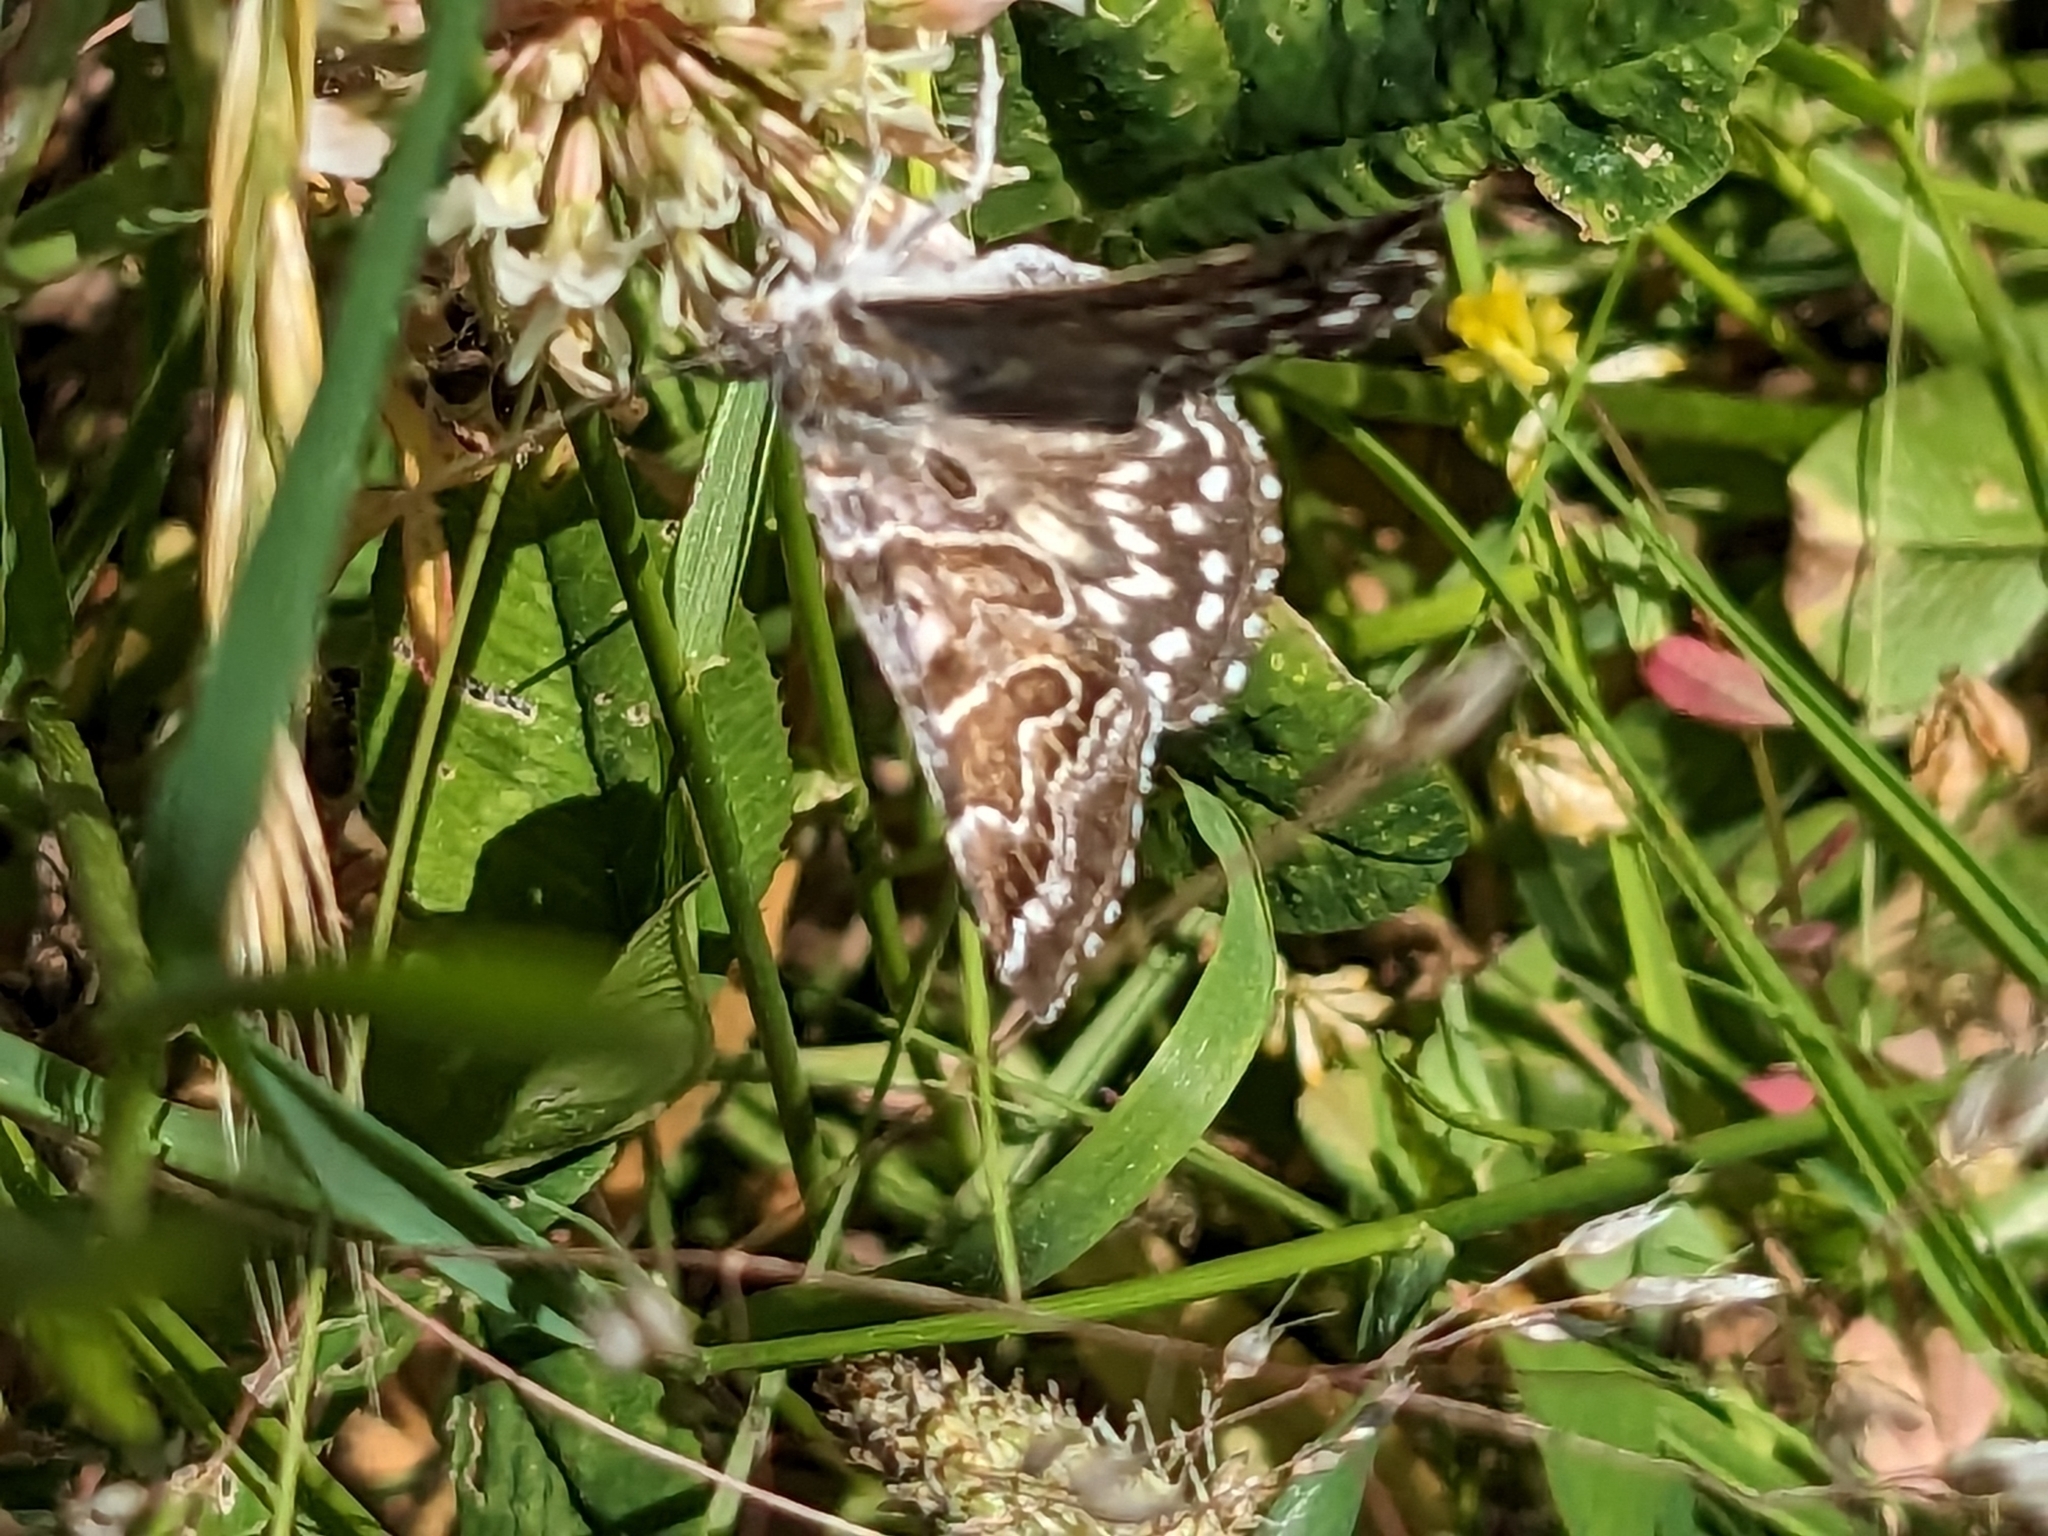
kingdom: Animalia
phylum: Arthropoda
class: Insecta
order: Lepidoptera
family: Erebidae
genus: Callistege
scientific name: Callistege mi
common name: Mother shipton
